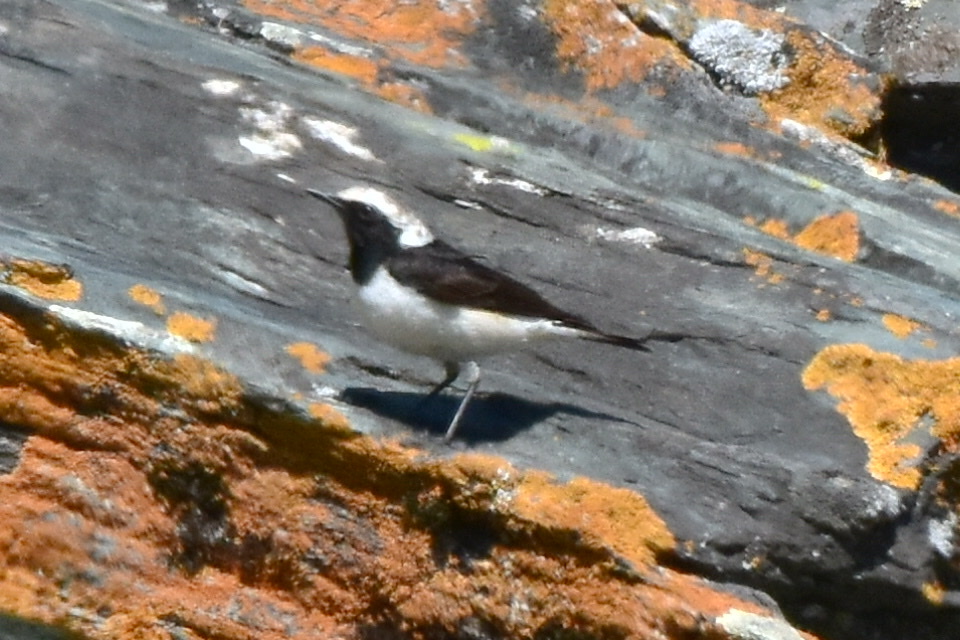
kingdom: Animalia
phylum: Chordata
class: Aves
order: Passeriformes
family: Muscicapidae
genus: Oenanthe
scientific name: Oenanthe pleschanka
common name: Pied wheatear
